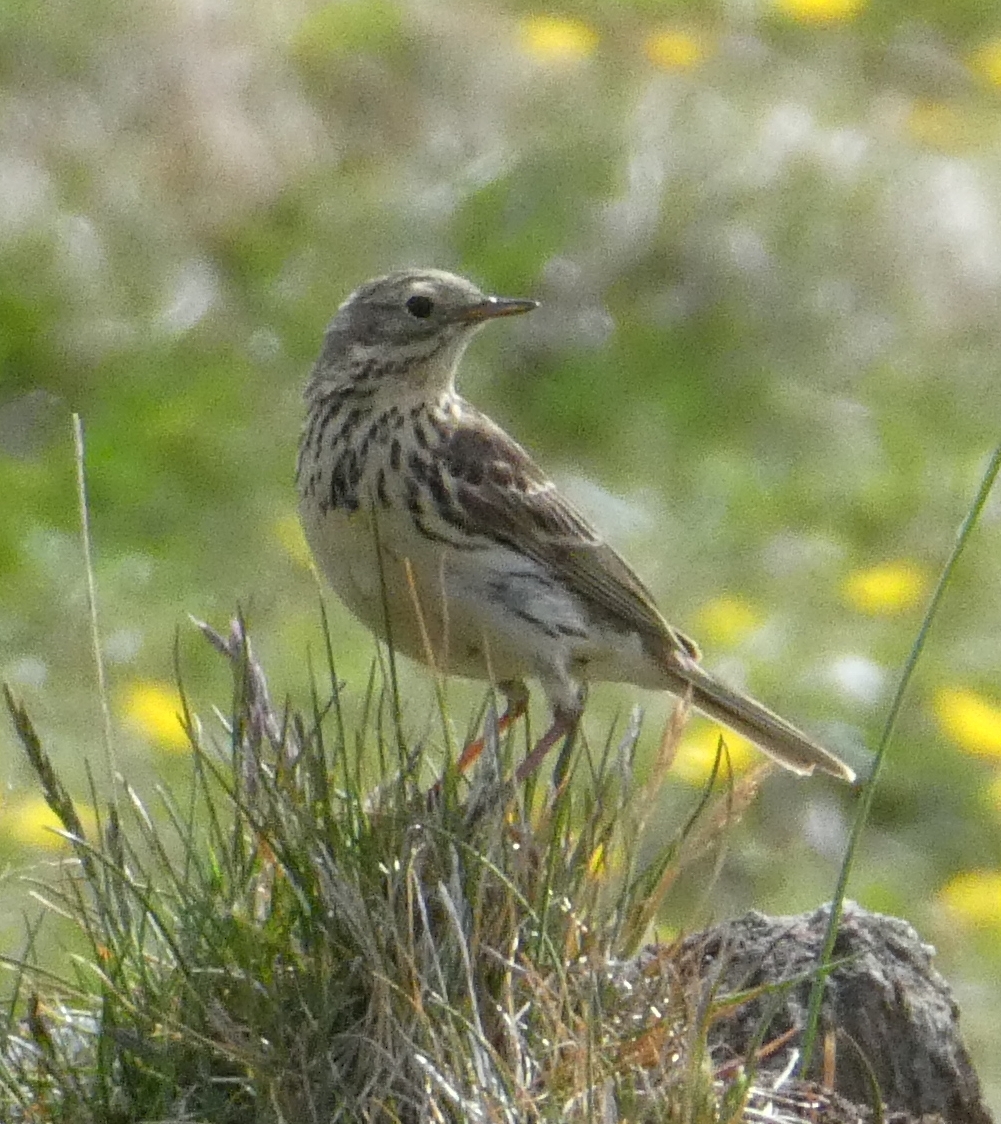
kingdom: Animalia
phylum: Chordata
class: Aves
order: Passeriformes
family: Motacillidae
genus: Anthus
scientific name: Anthus pratensis
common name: Meadow pipit
